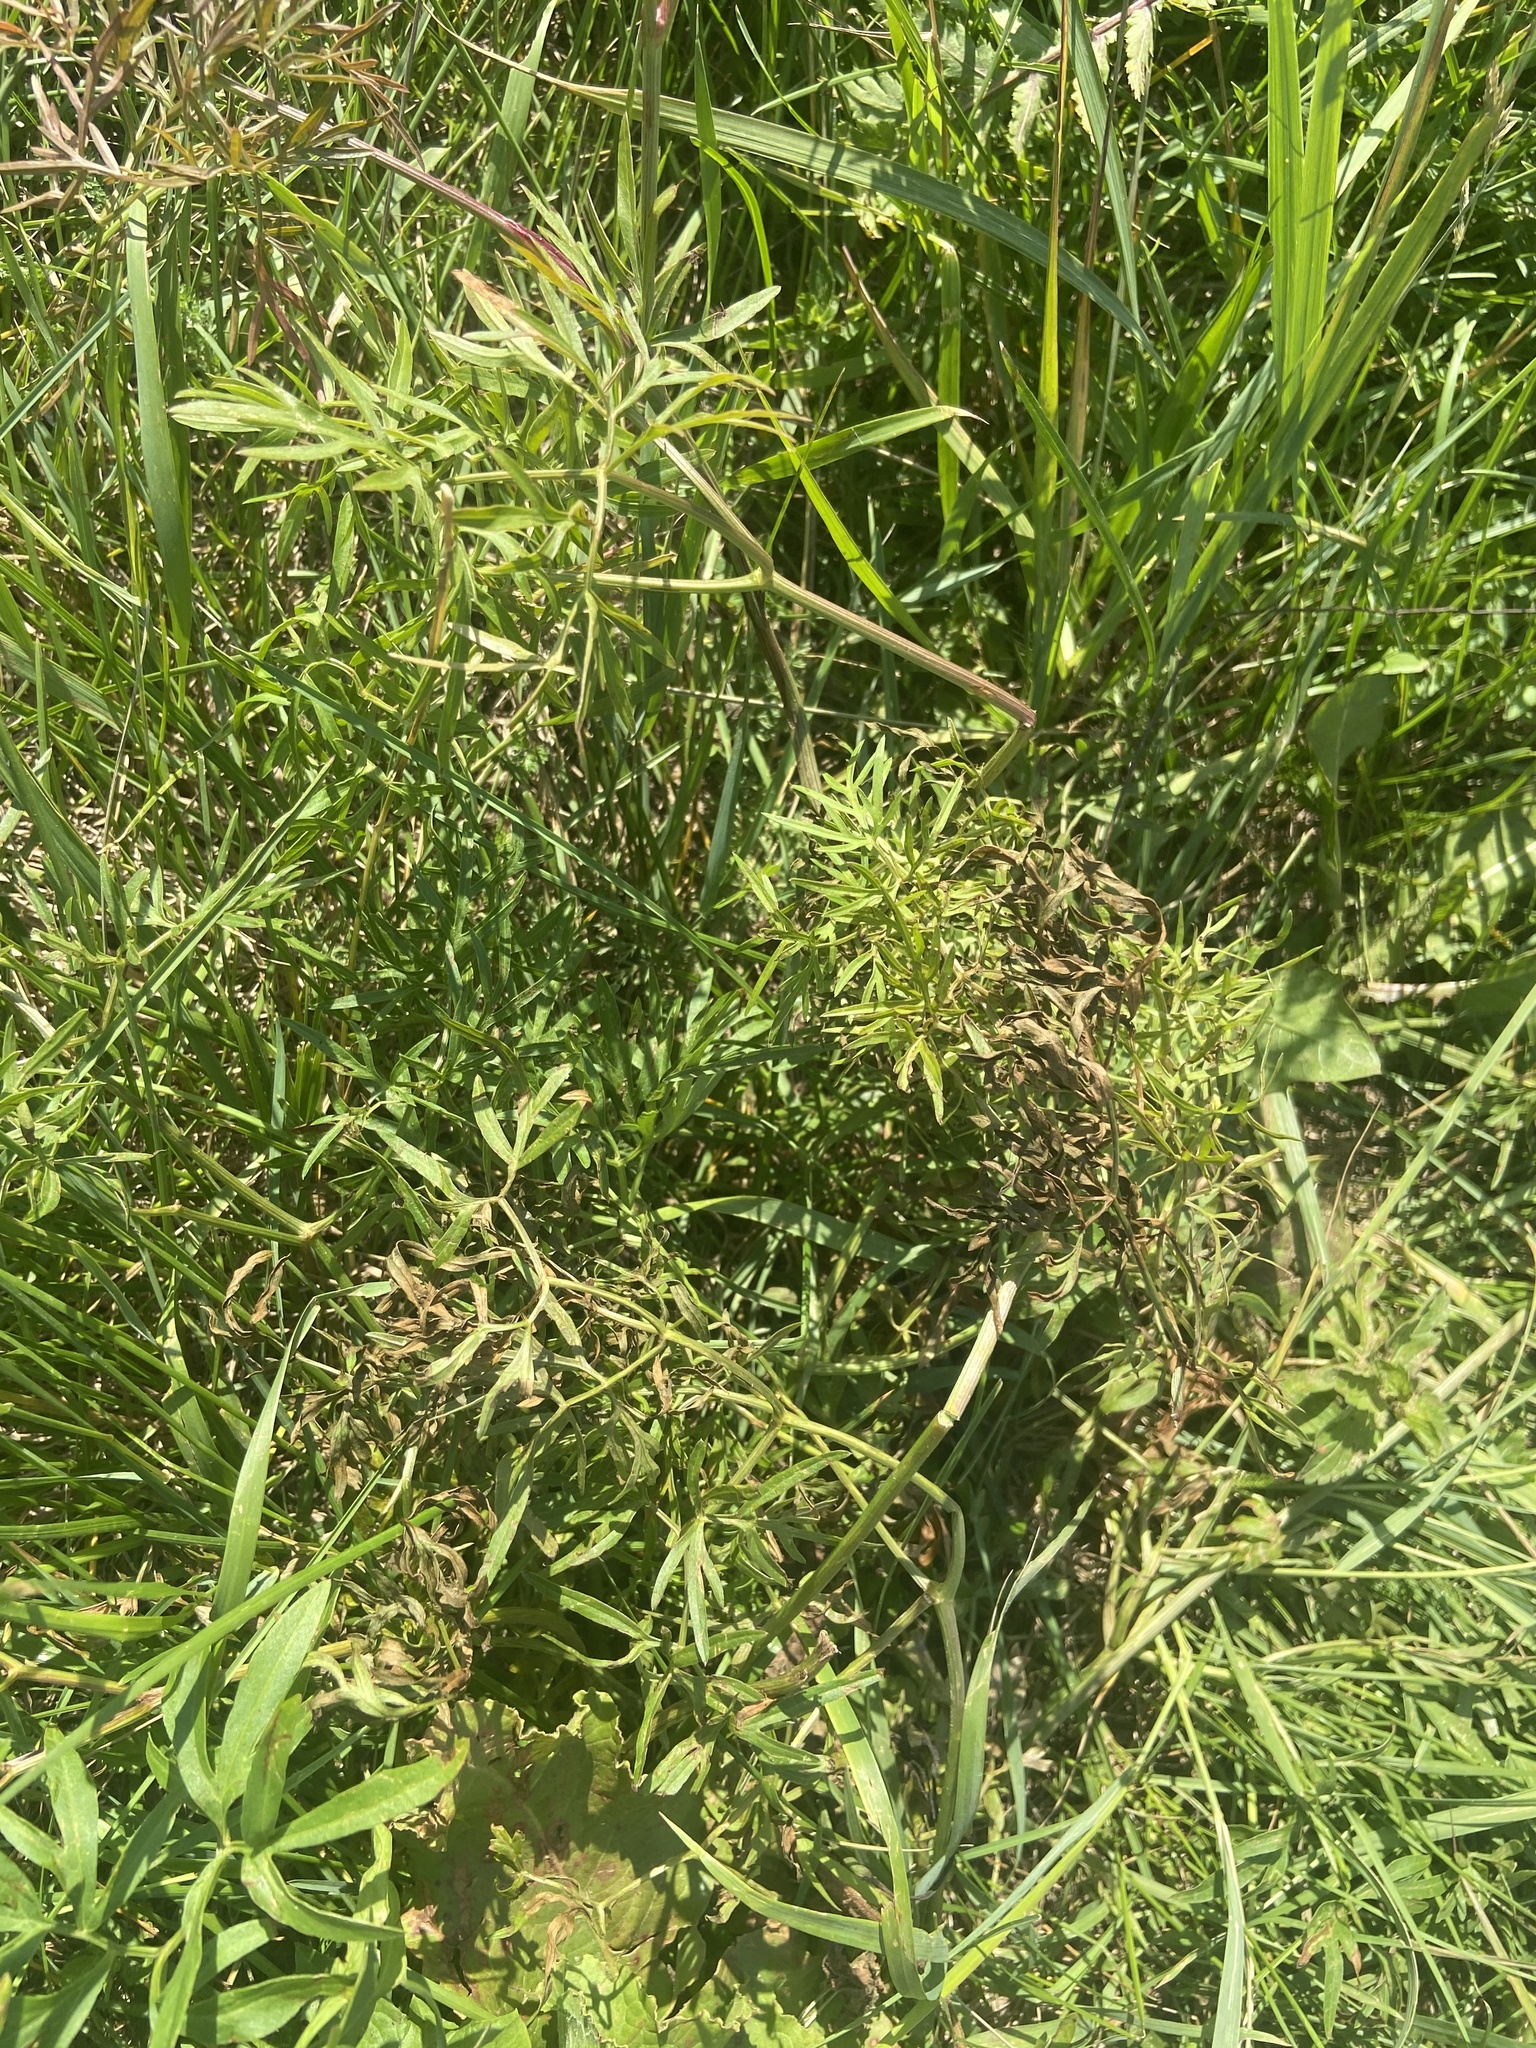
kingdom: Plantae
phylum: Tracheophyta
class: Magnoliopsida
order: Apiales
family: Apiaceae
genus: Cenolophium
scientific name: Cenolophium fischeri
